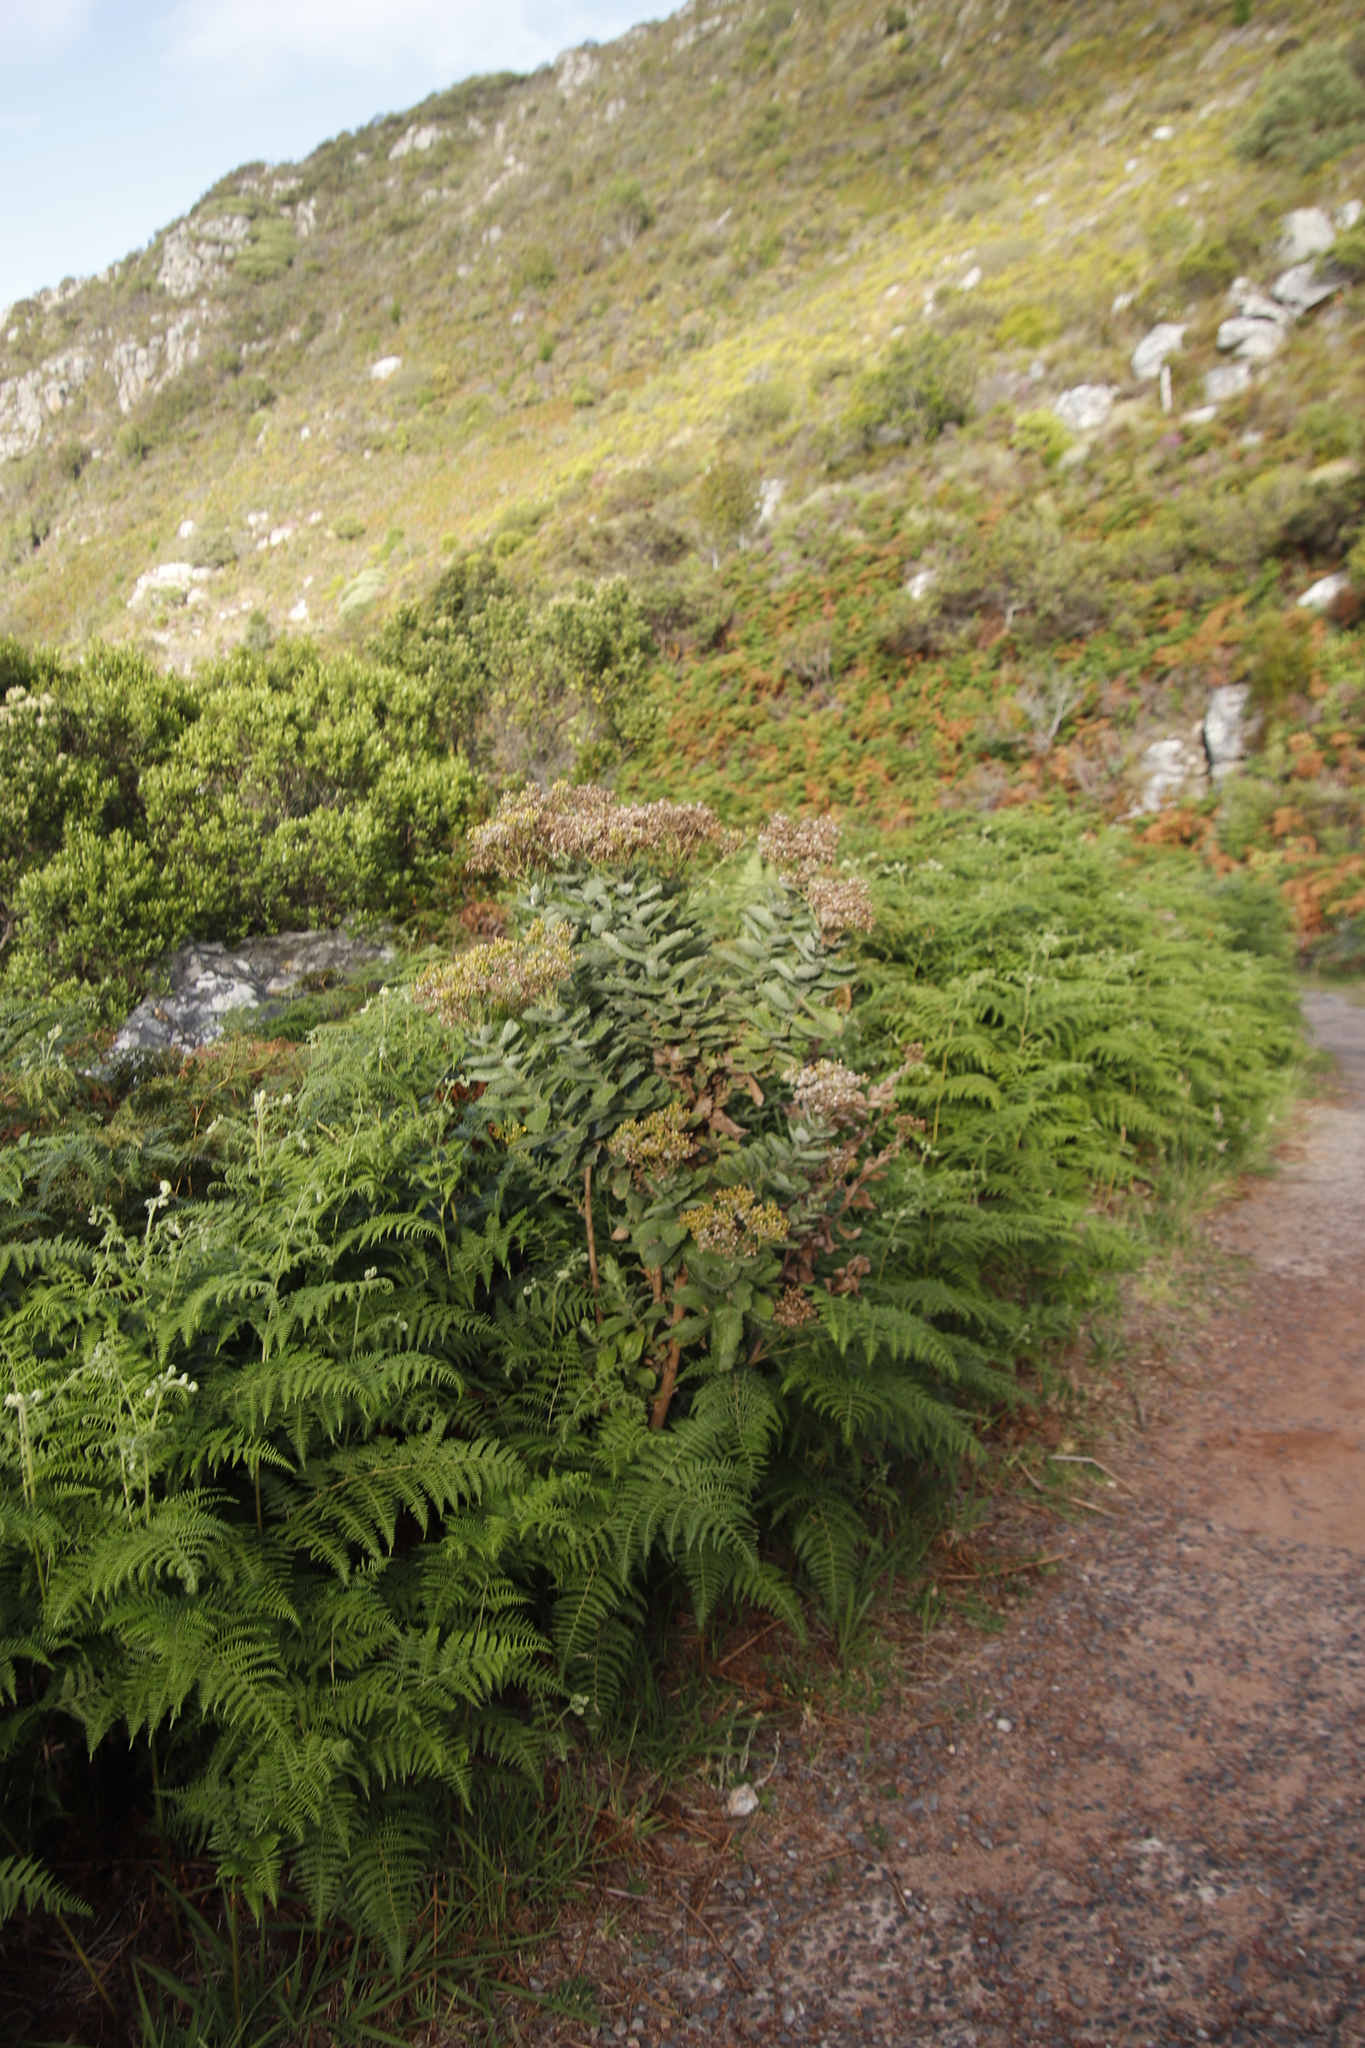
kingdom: Plantae
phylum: Tracheophyta
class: Magnoliopsida
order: Asterales
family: Asteraceae
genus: Senecio
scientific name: Senecio rigidus
